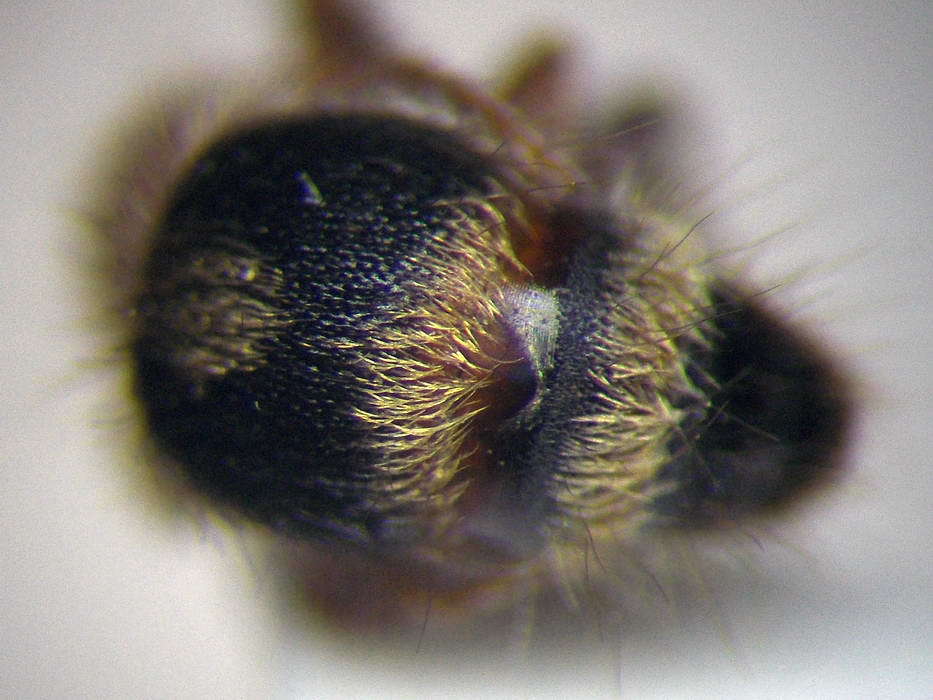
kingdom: Animalia
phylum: Arthropoda
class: Insecta
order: Hymenoptera
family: Mutillidae
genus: Smicromyrme
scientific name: Smicromyrme rufipes
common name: Small velvet ant
